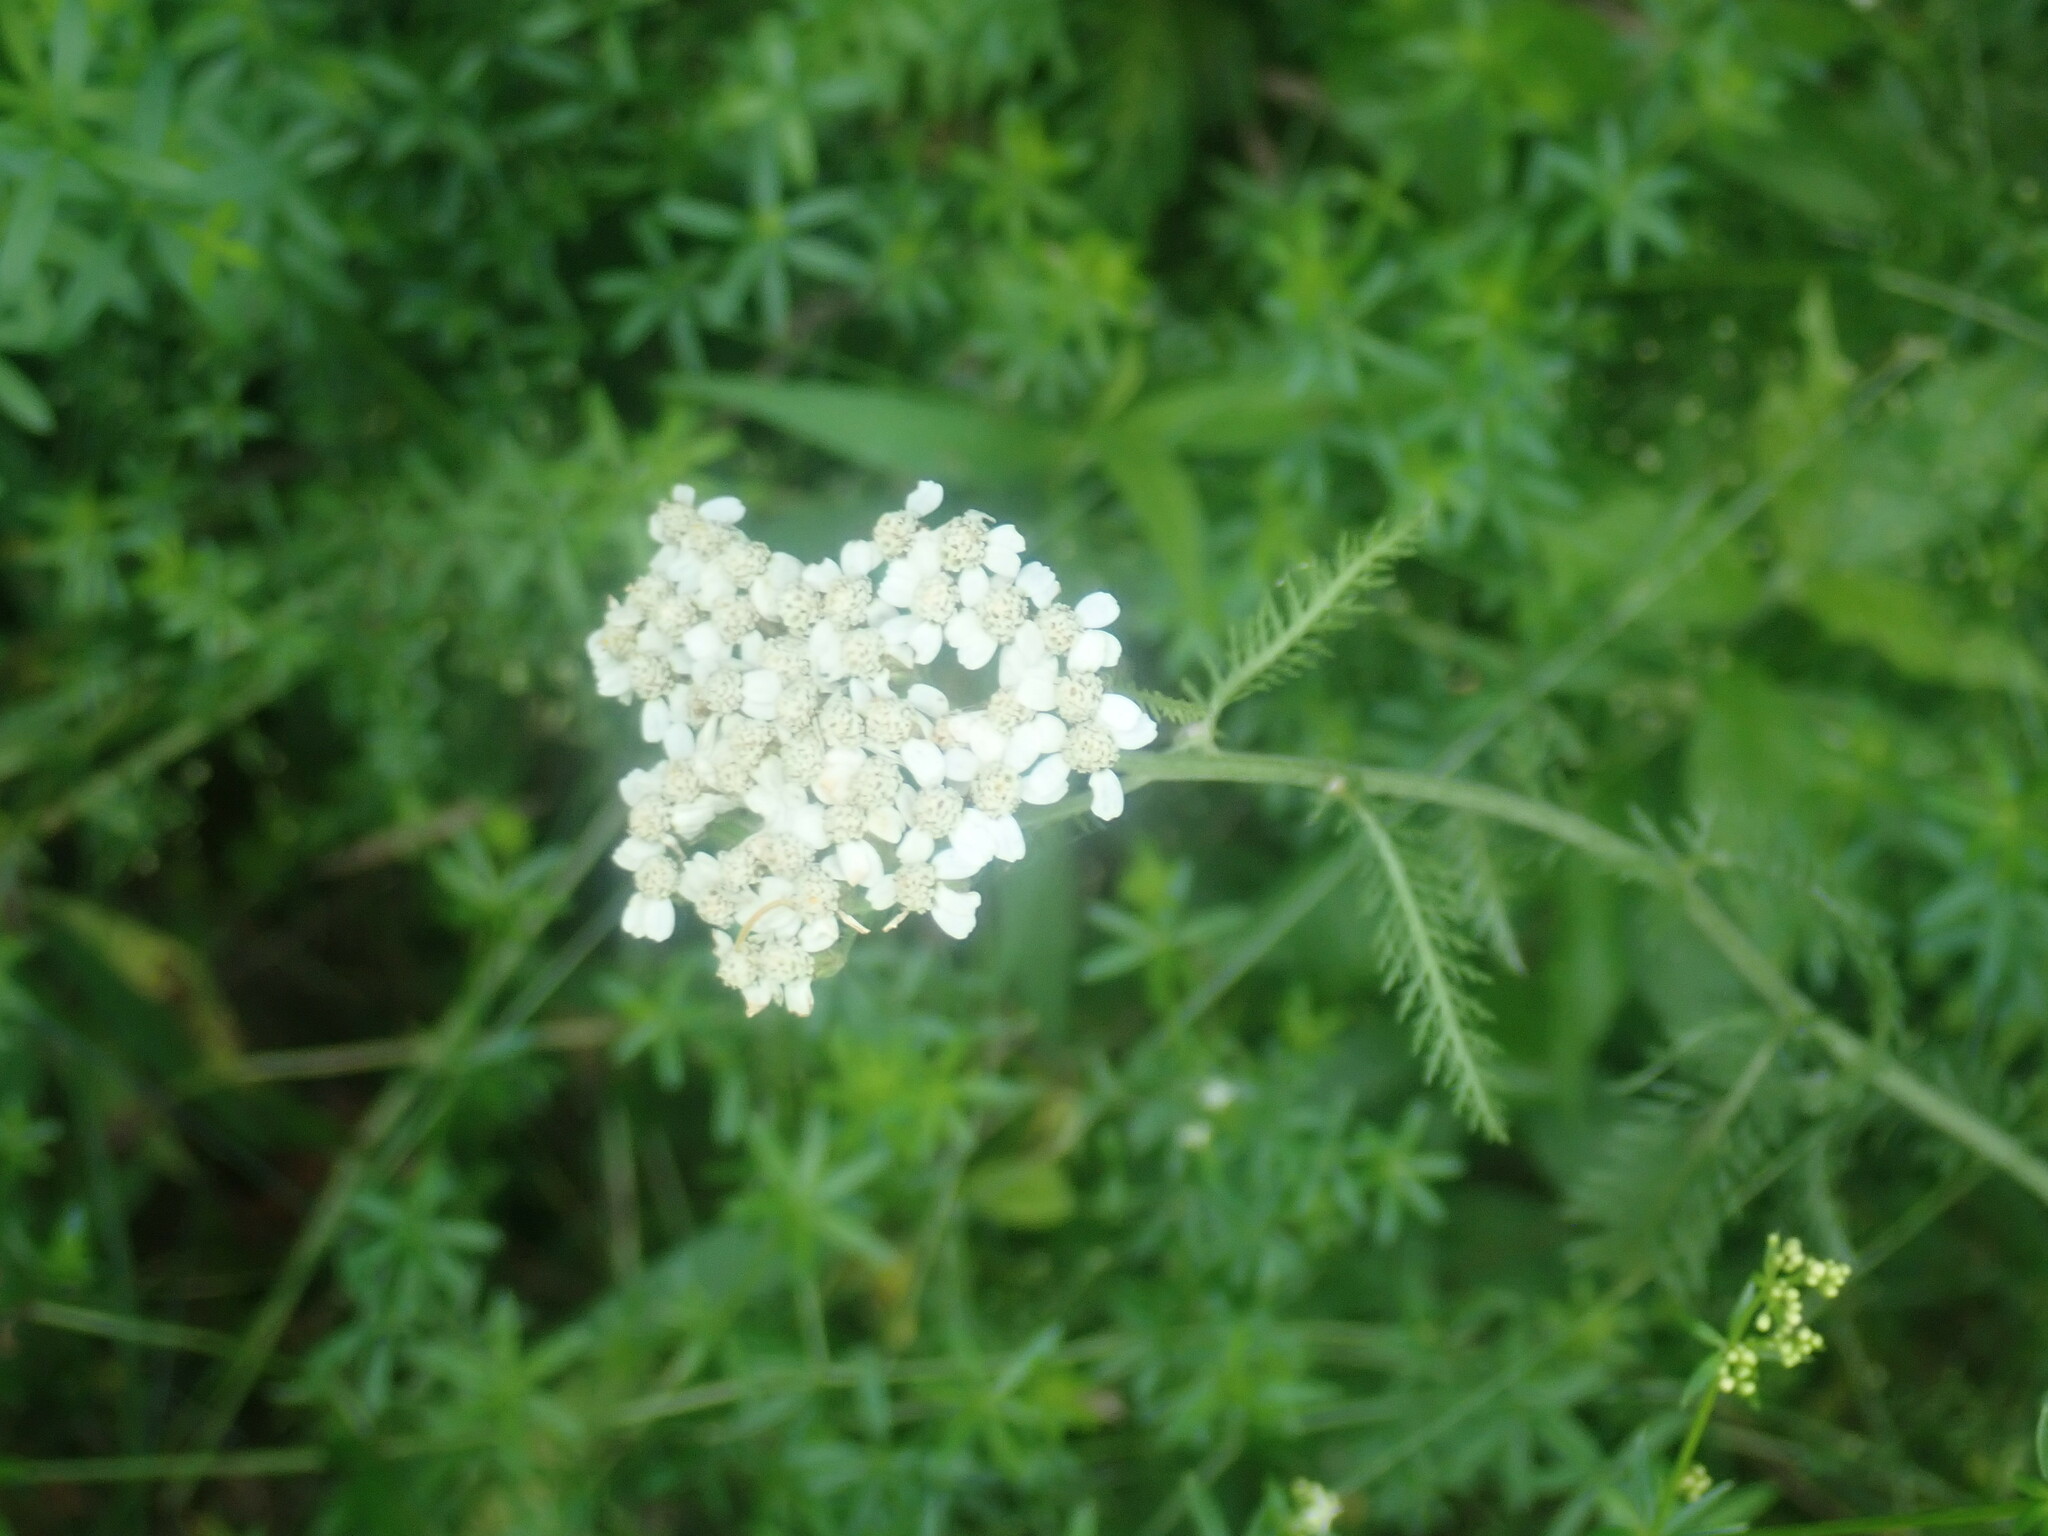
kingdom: Plantae
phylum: Tracheophyta
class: Magnoliopsida
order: Asterales
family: Asteraceae
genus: Achillea
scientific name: Achillea millefolium
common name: Yarrow
